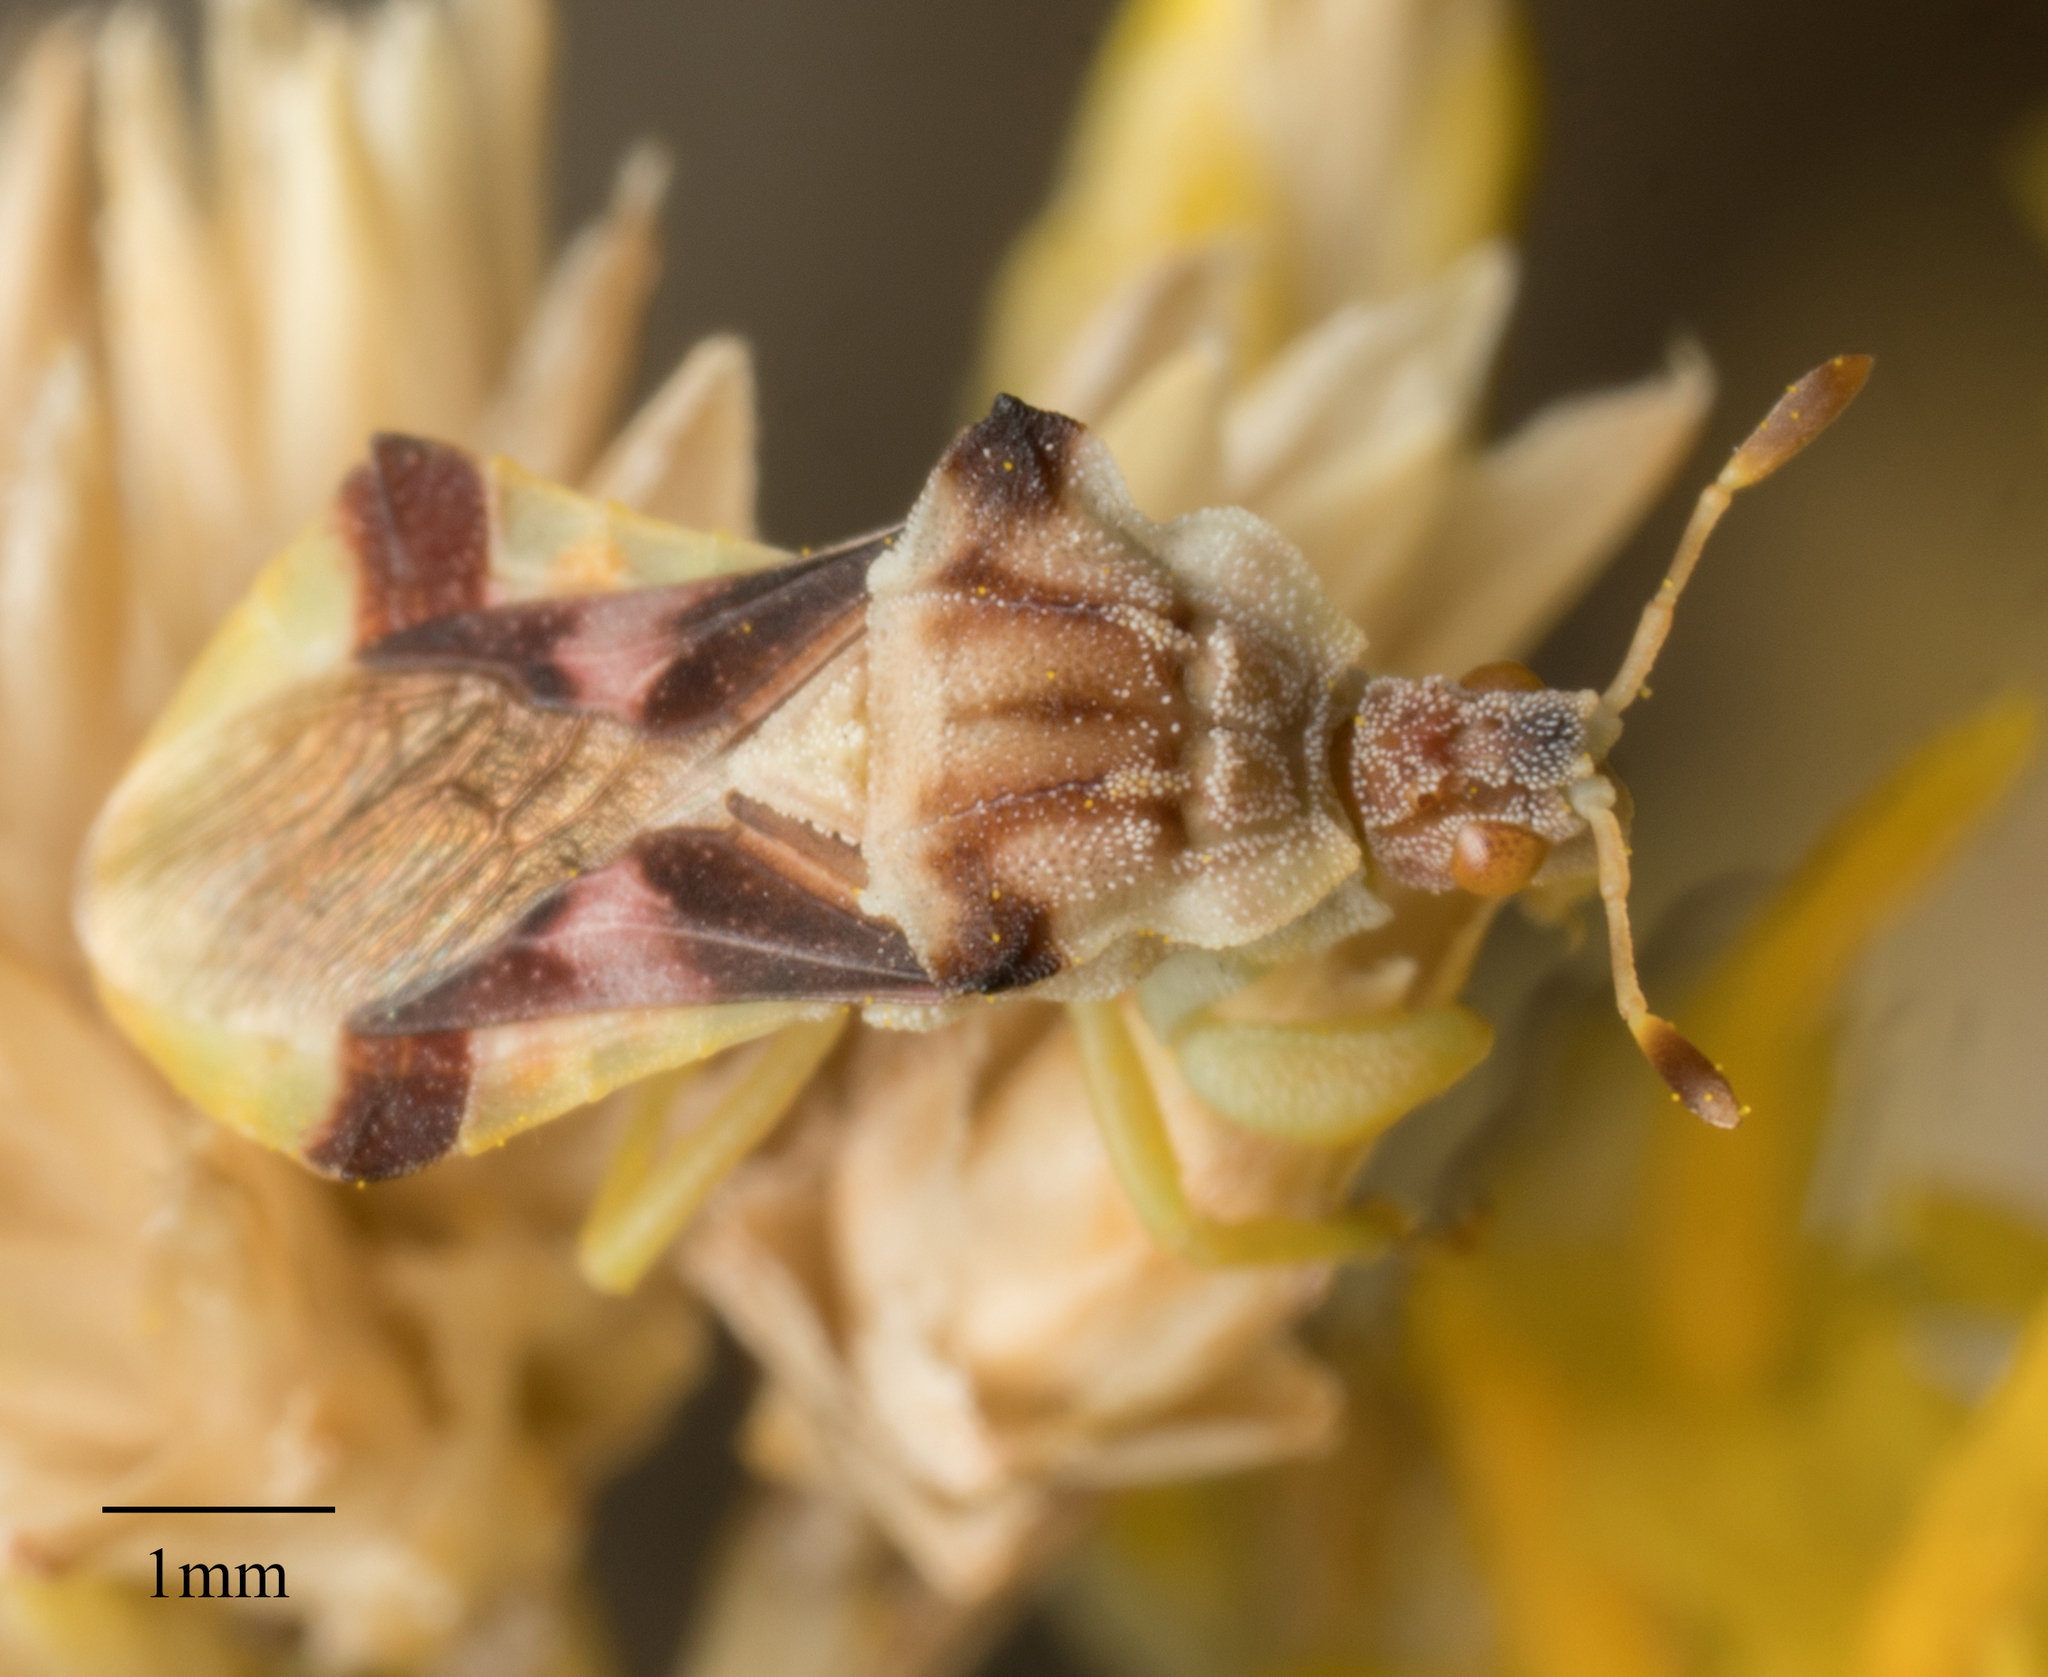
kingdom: Animalia
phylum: Arthropoda
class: Insecta
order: Hemiptera
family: Reduviidae
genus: Phymata
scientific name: Phymata pacifica
